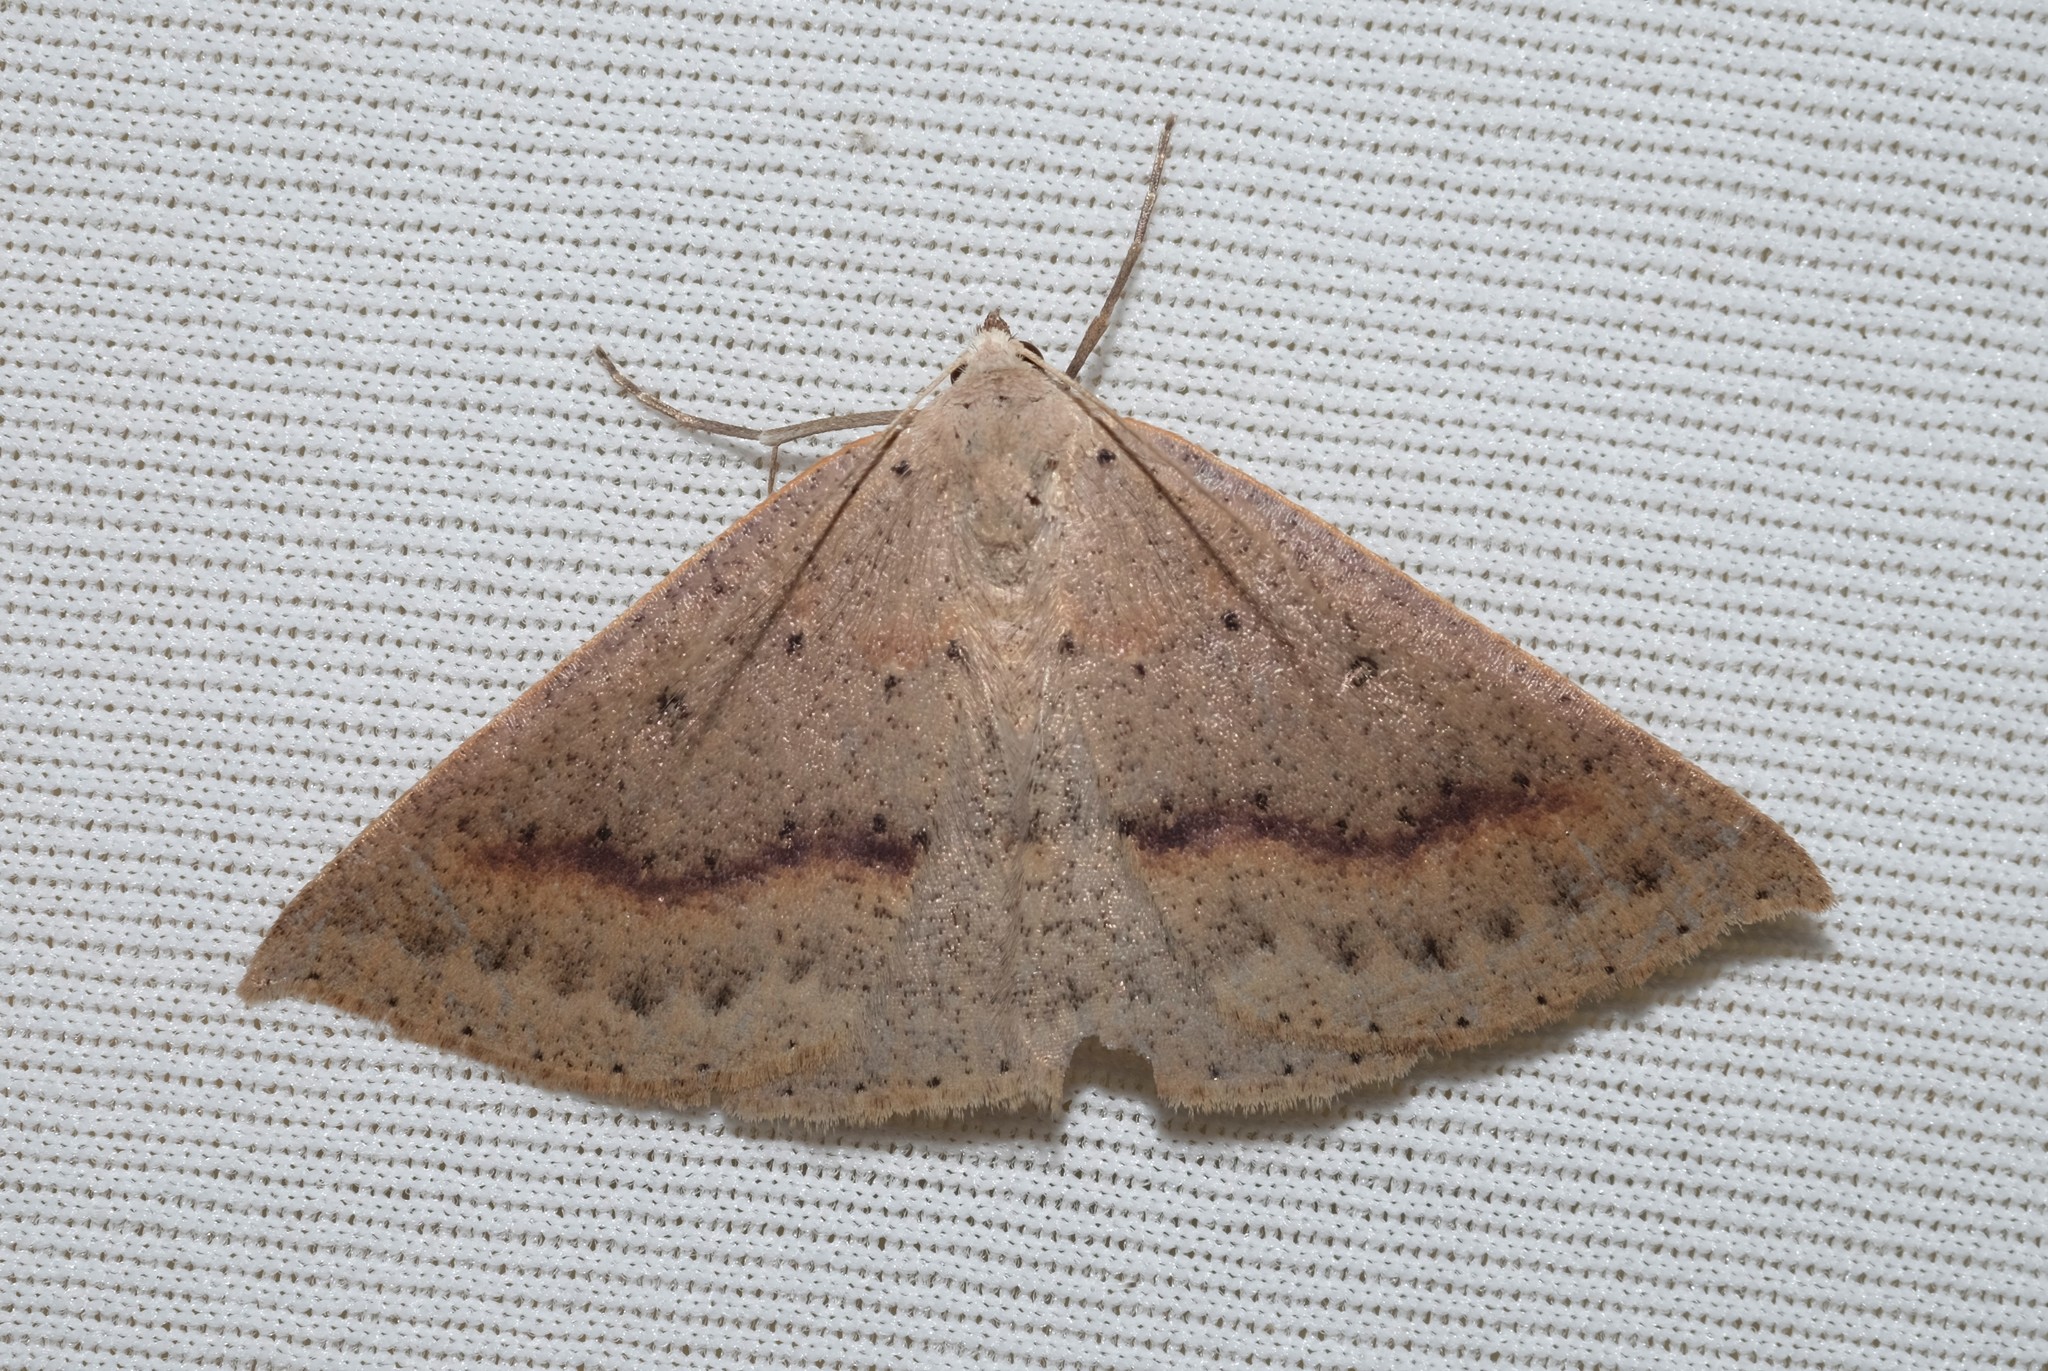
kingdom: Animalia
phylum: Arthropoda
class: Insecta
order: Lepidoptera
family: Geometridae
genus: Nearcha
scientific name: Nearcha ursaria
